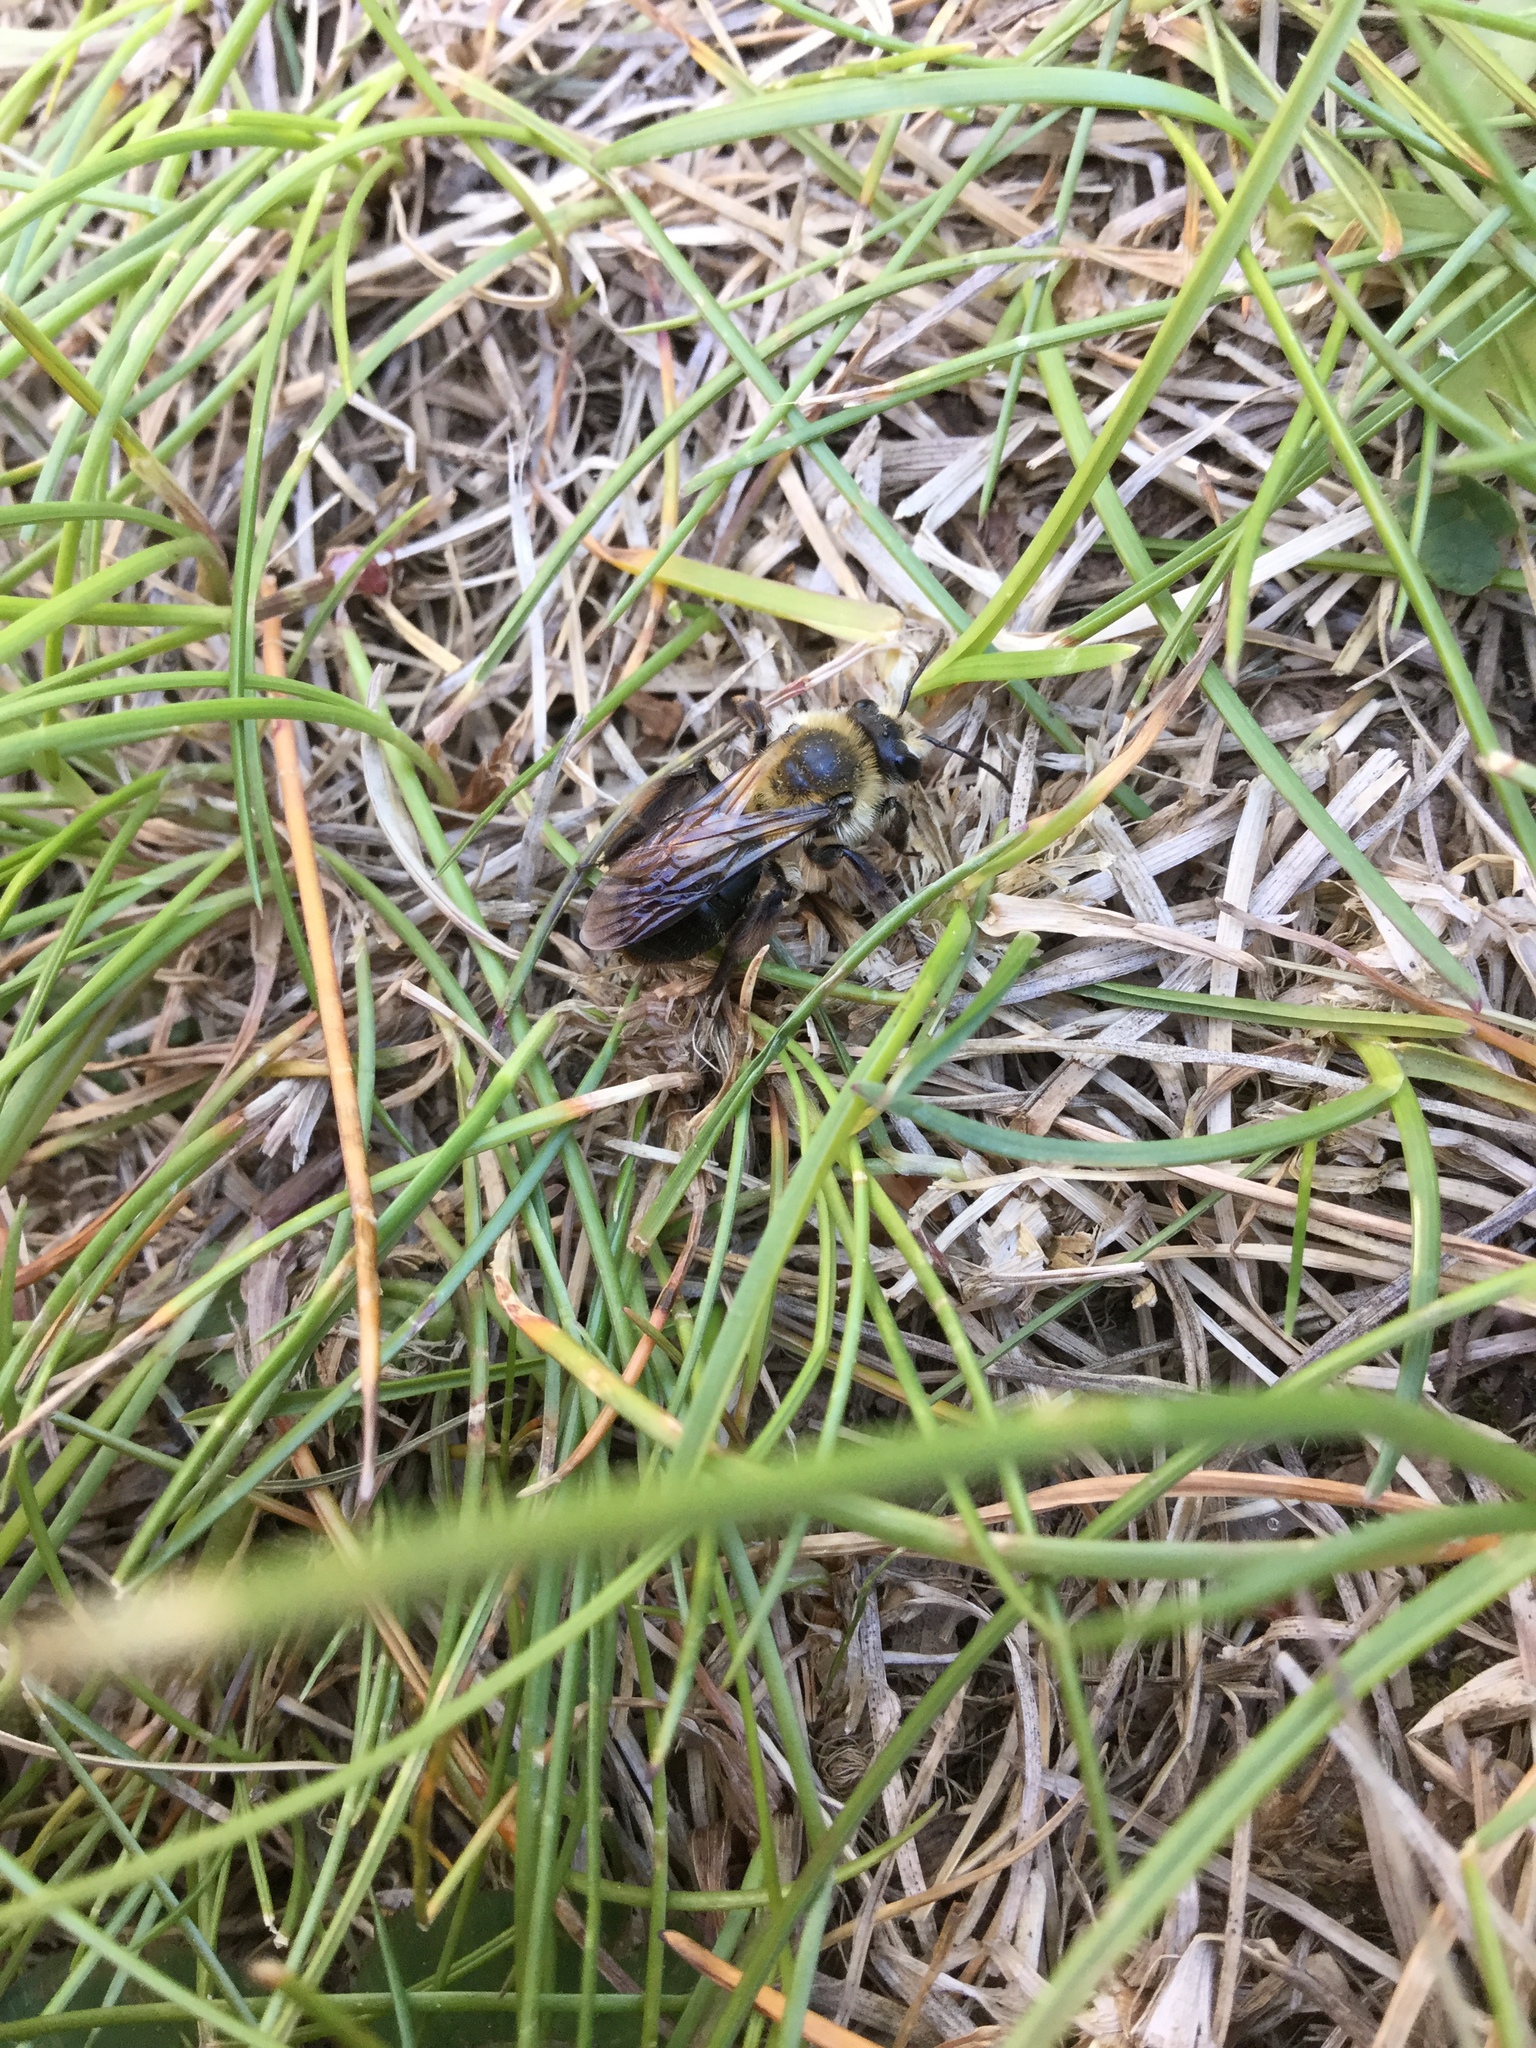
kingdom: Animalia
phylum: Arthropoda
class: Insecta
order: Hymenoptera
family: Andrenidae
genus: Andrena
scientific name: Andrena vicina
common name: Neighborly mining bee
